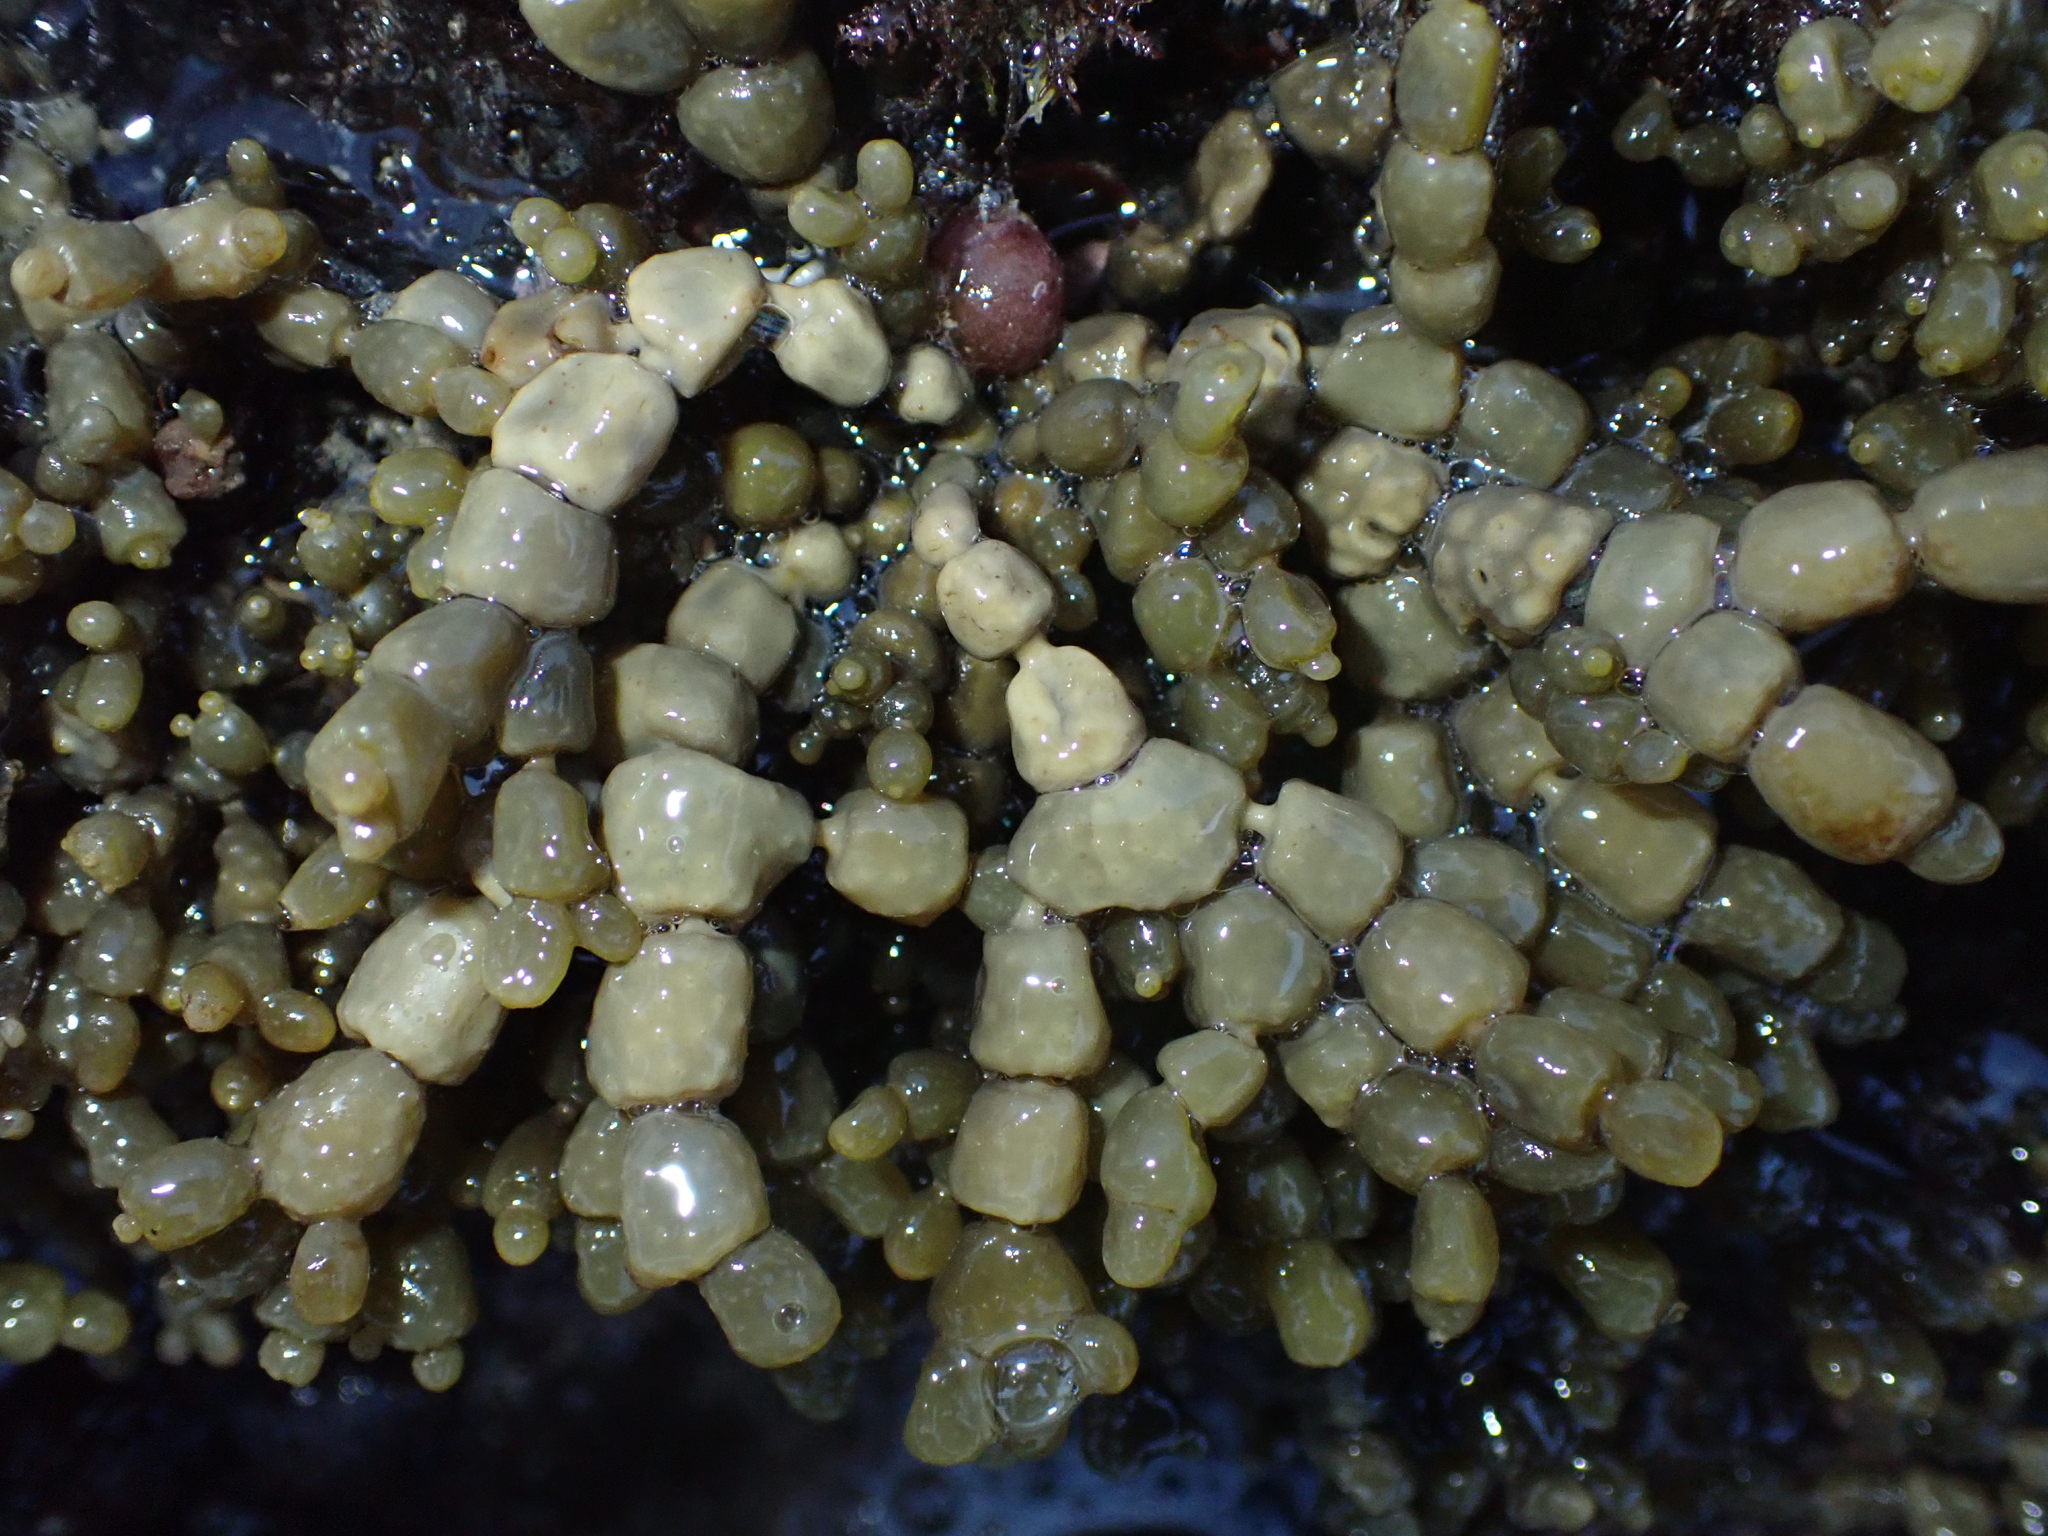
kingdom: Chromista
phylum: Ochrophyta
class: Phaeophyceae
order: Fucales
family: Hormosiraceae
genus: Hormosira
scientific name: Hormosira banksii
